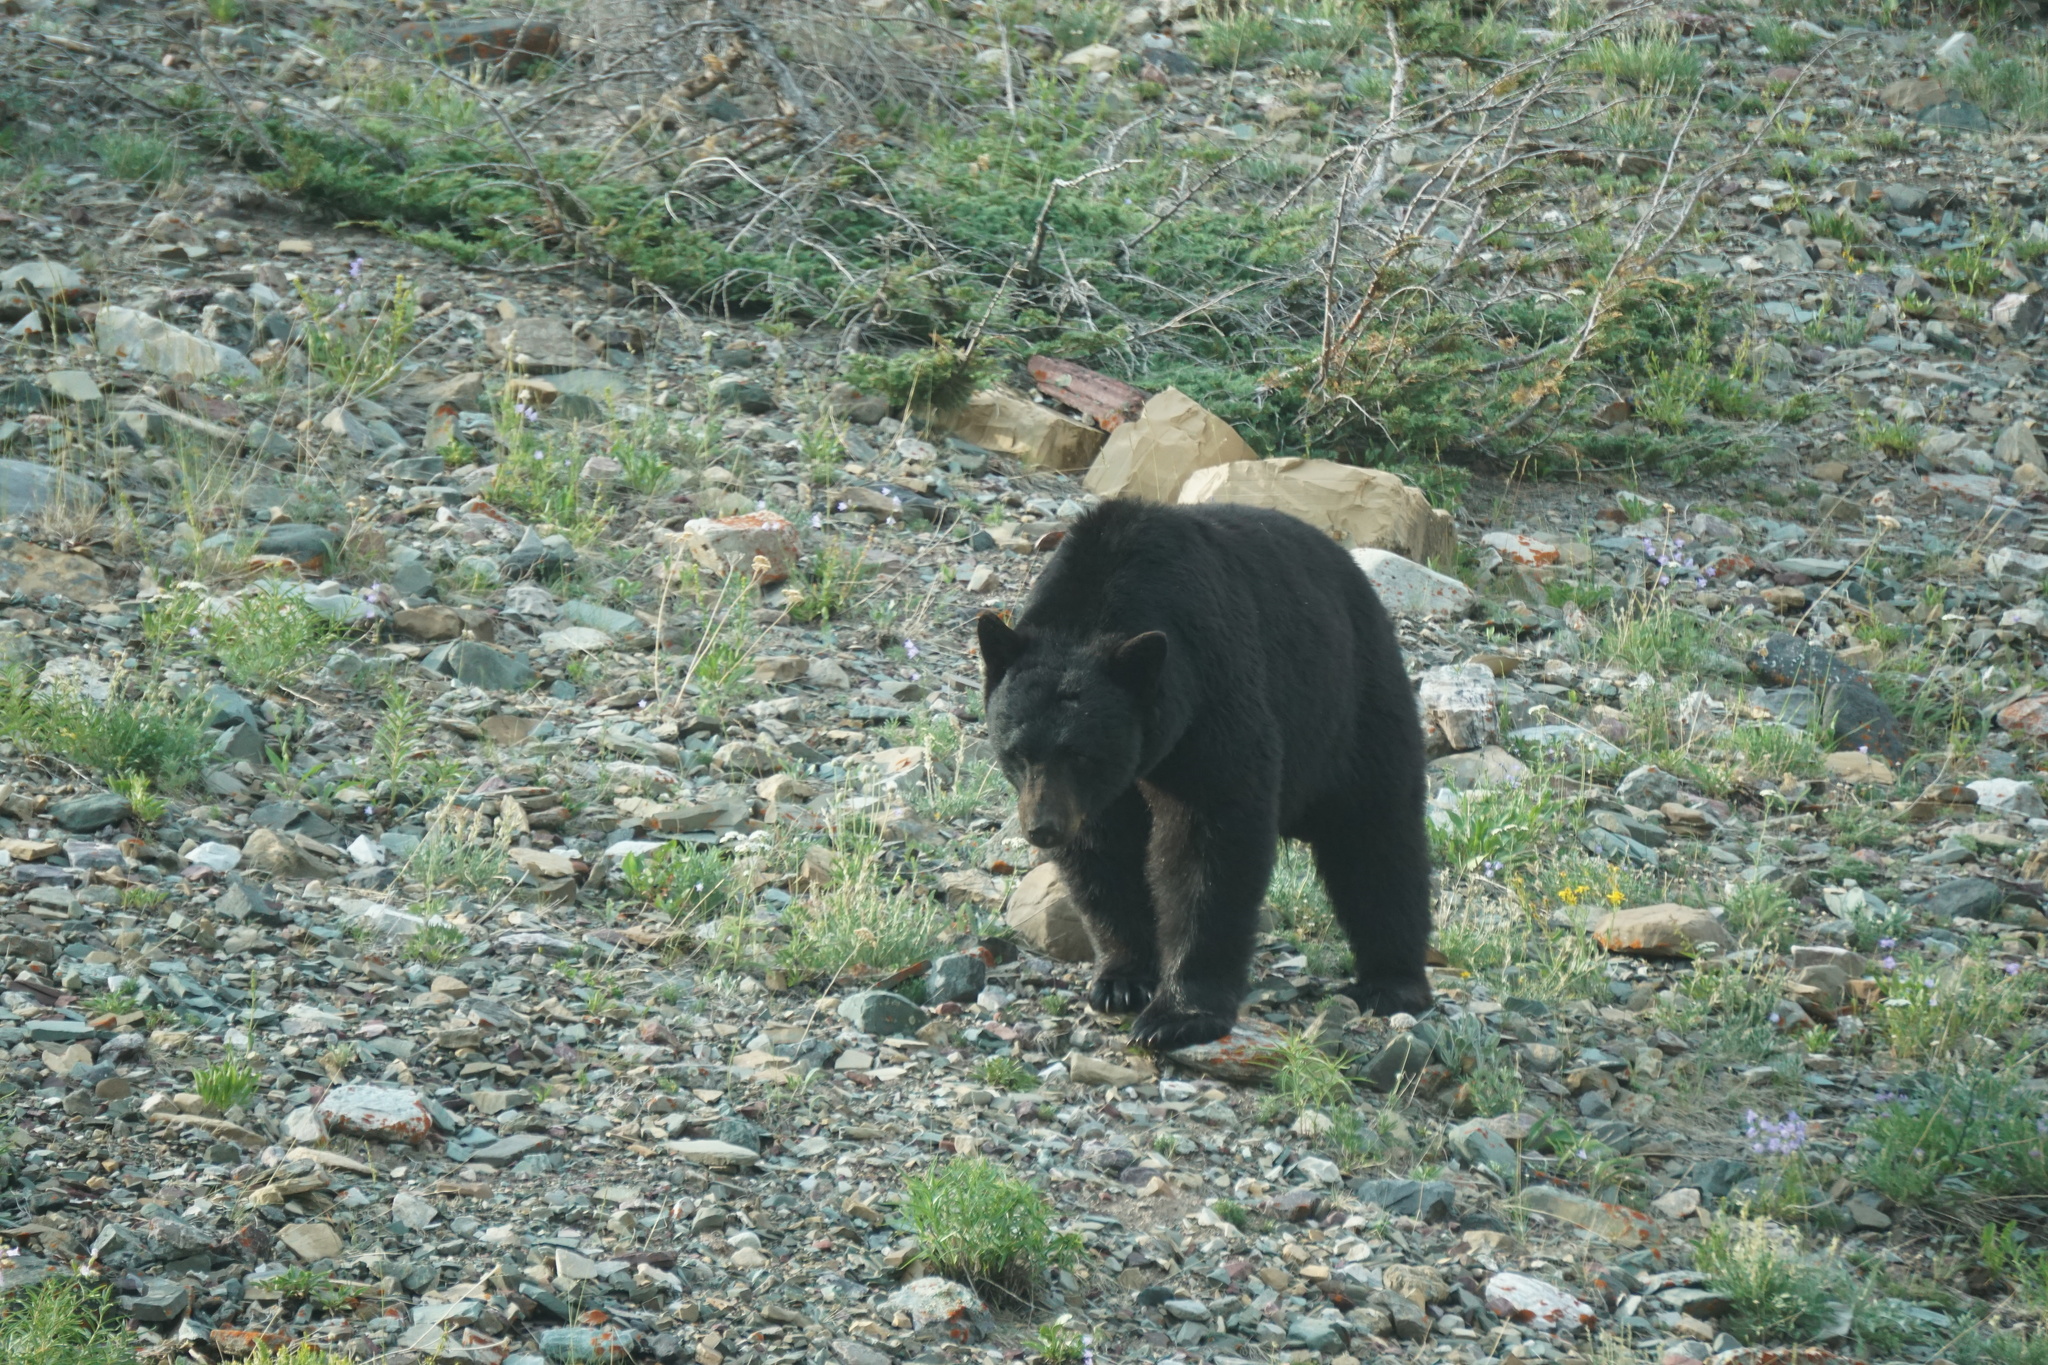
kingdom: Animalia
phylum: Chordata
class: Mammalia
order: Carnivora
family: Ursidae
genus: Ursus
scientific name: Ursus americanus
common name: American black bear
